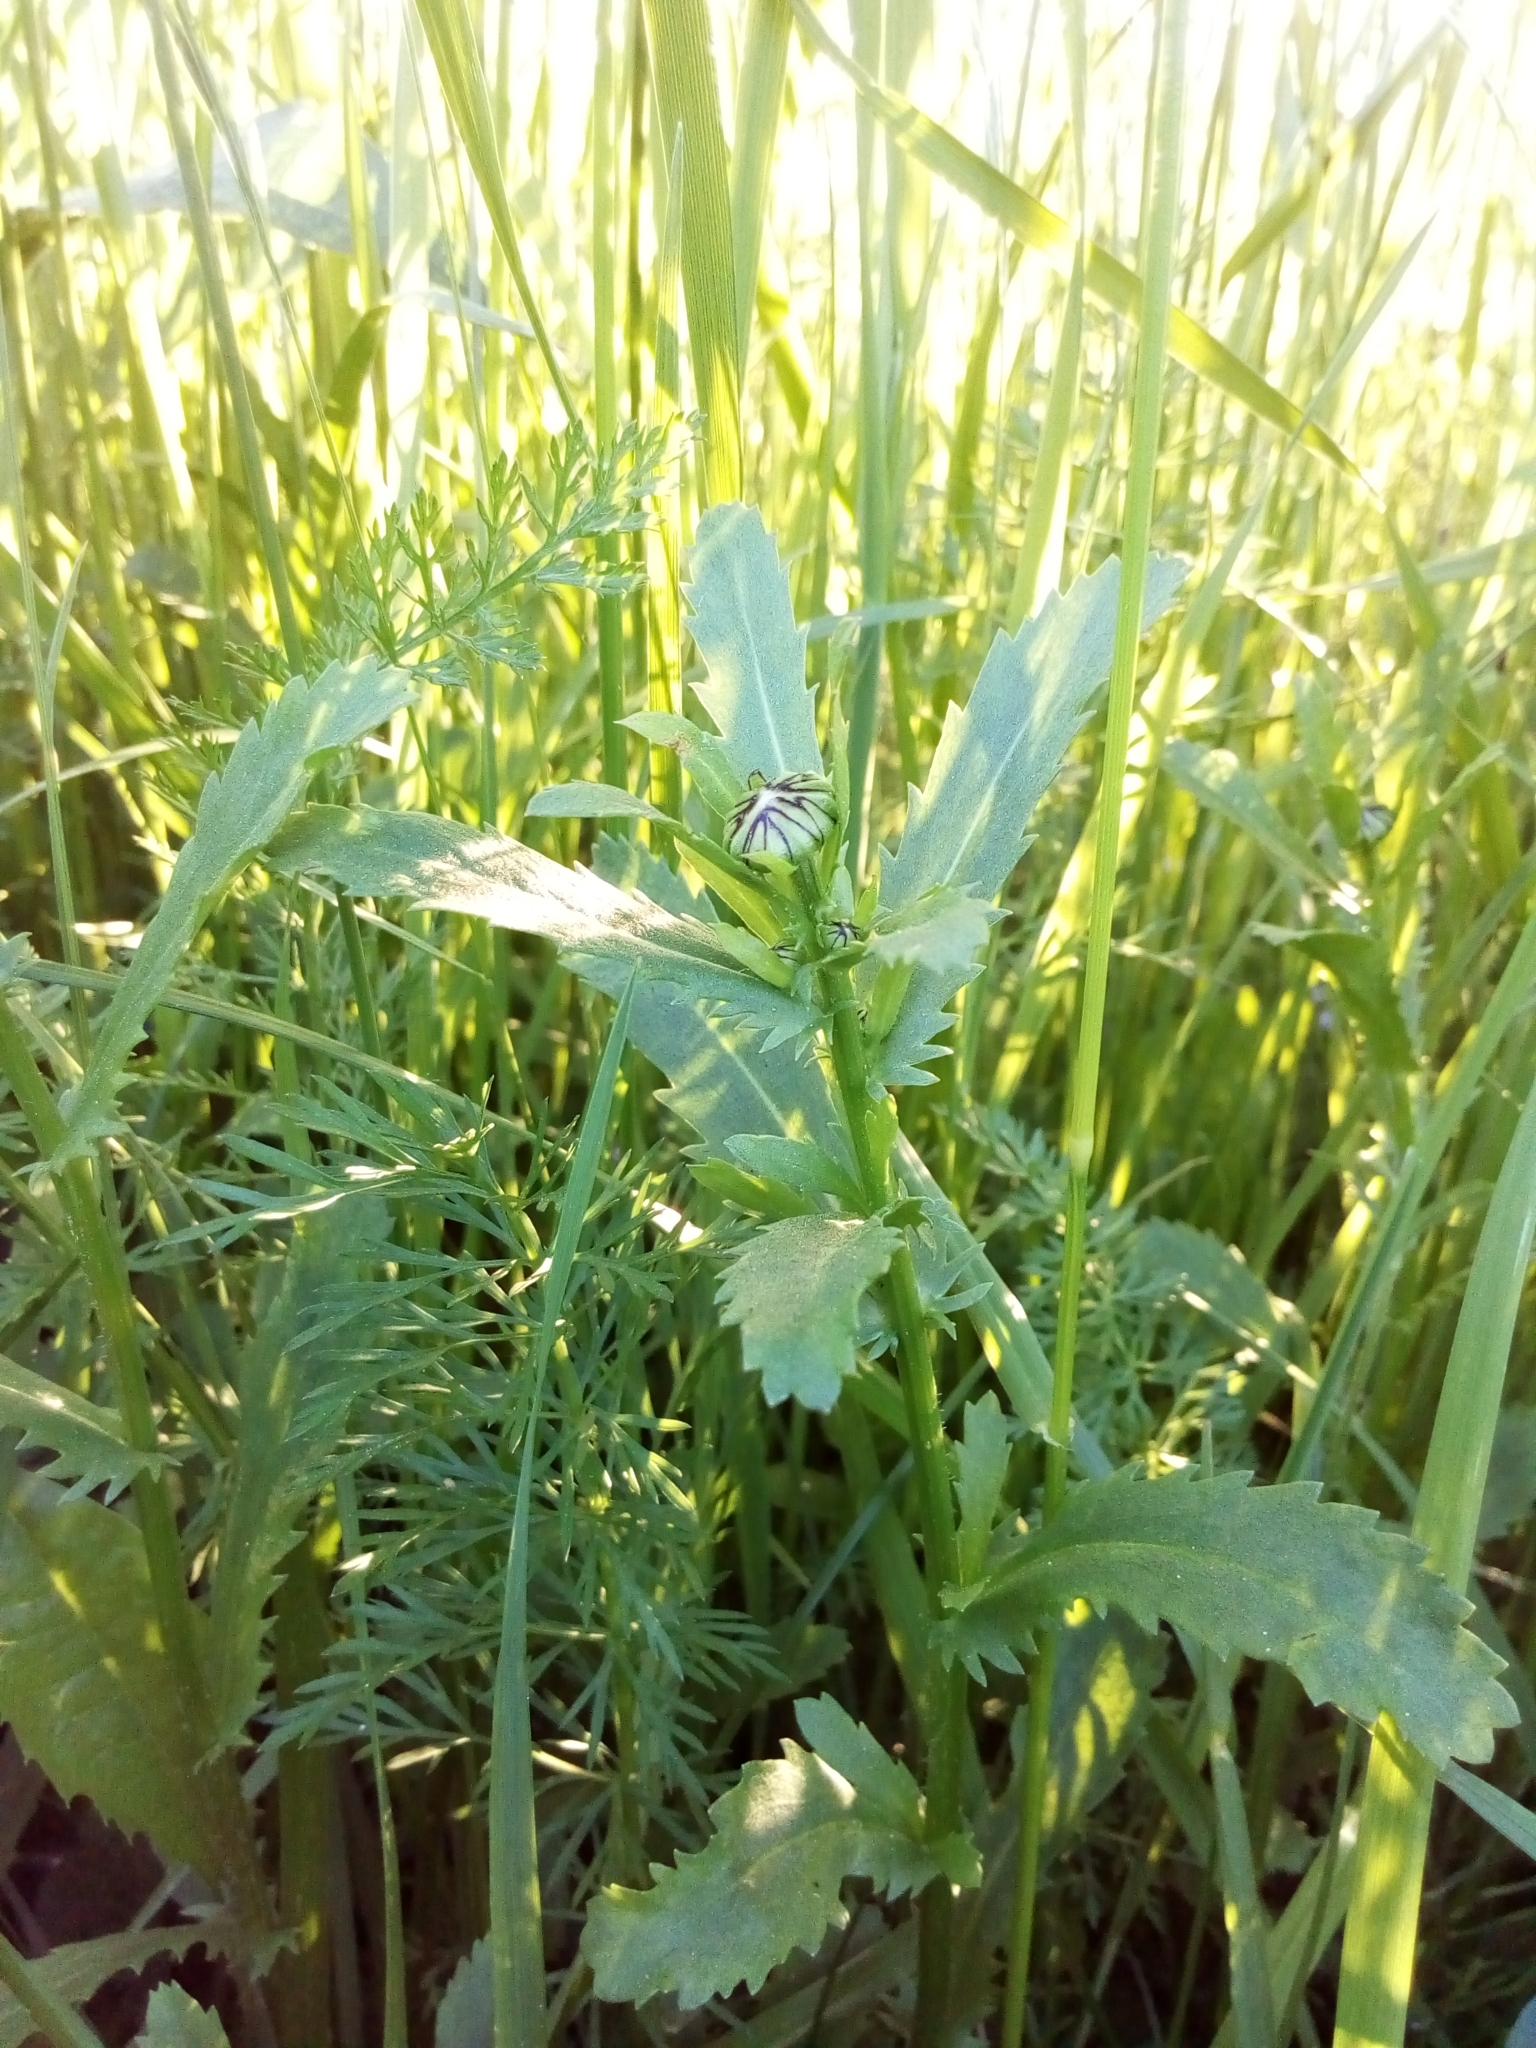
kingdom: Plantae
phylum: Tracheophyta
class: Magnoliopsida
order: Asterales
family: Asteraceae
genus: Leucanthemum
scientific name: Leucanthemum vulgare
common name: Oxeye daisy
